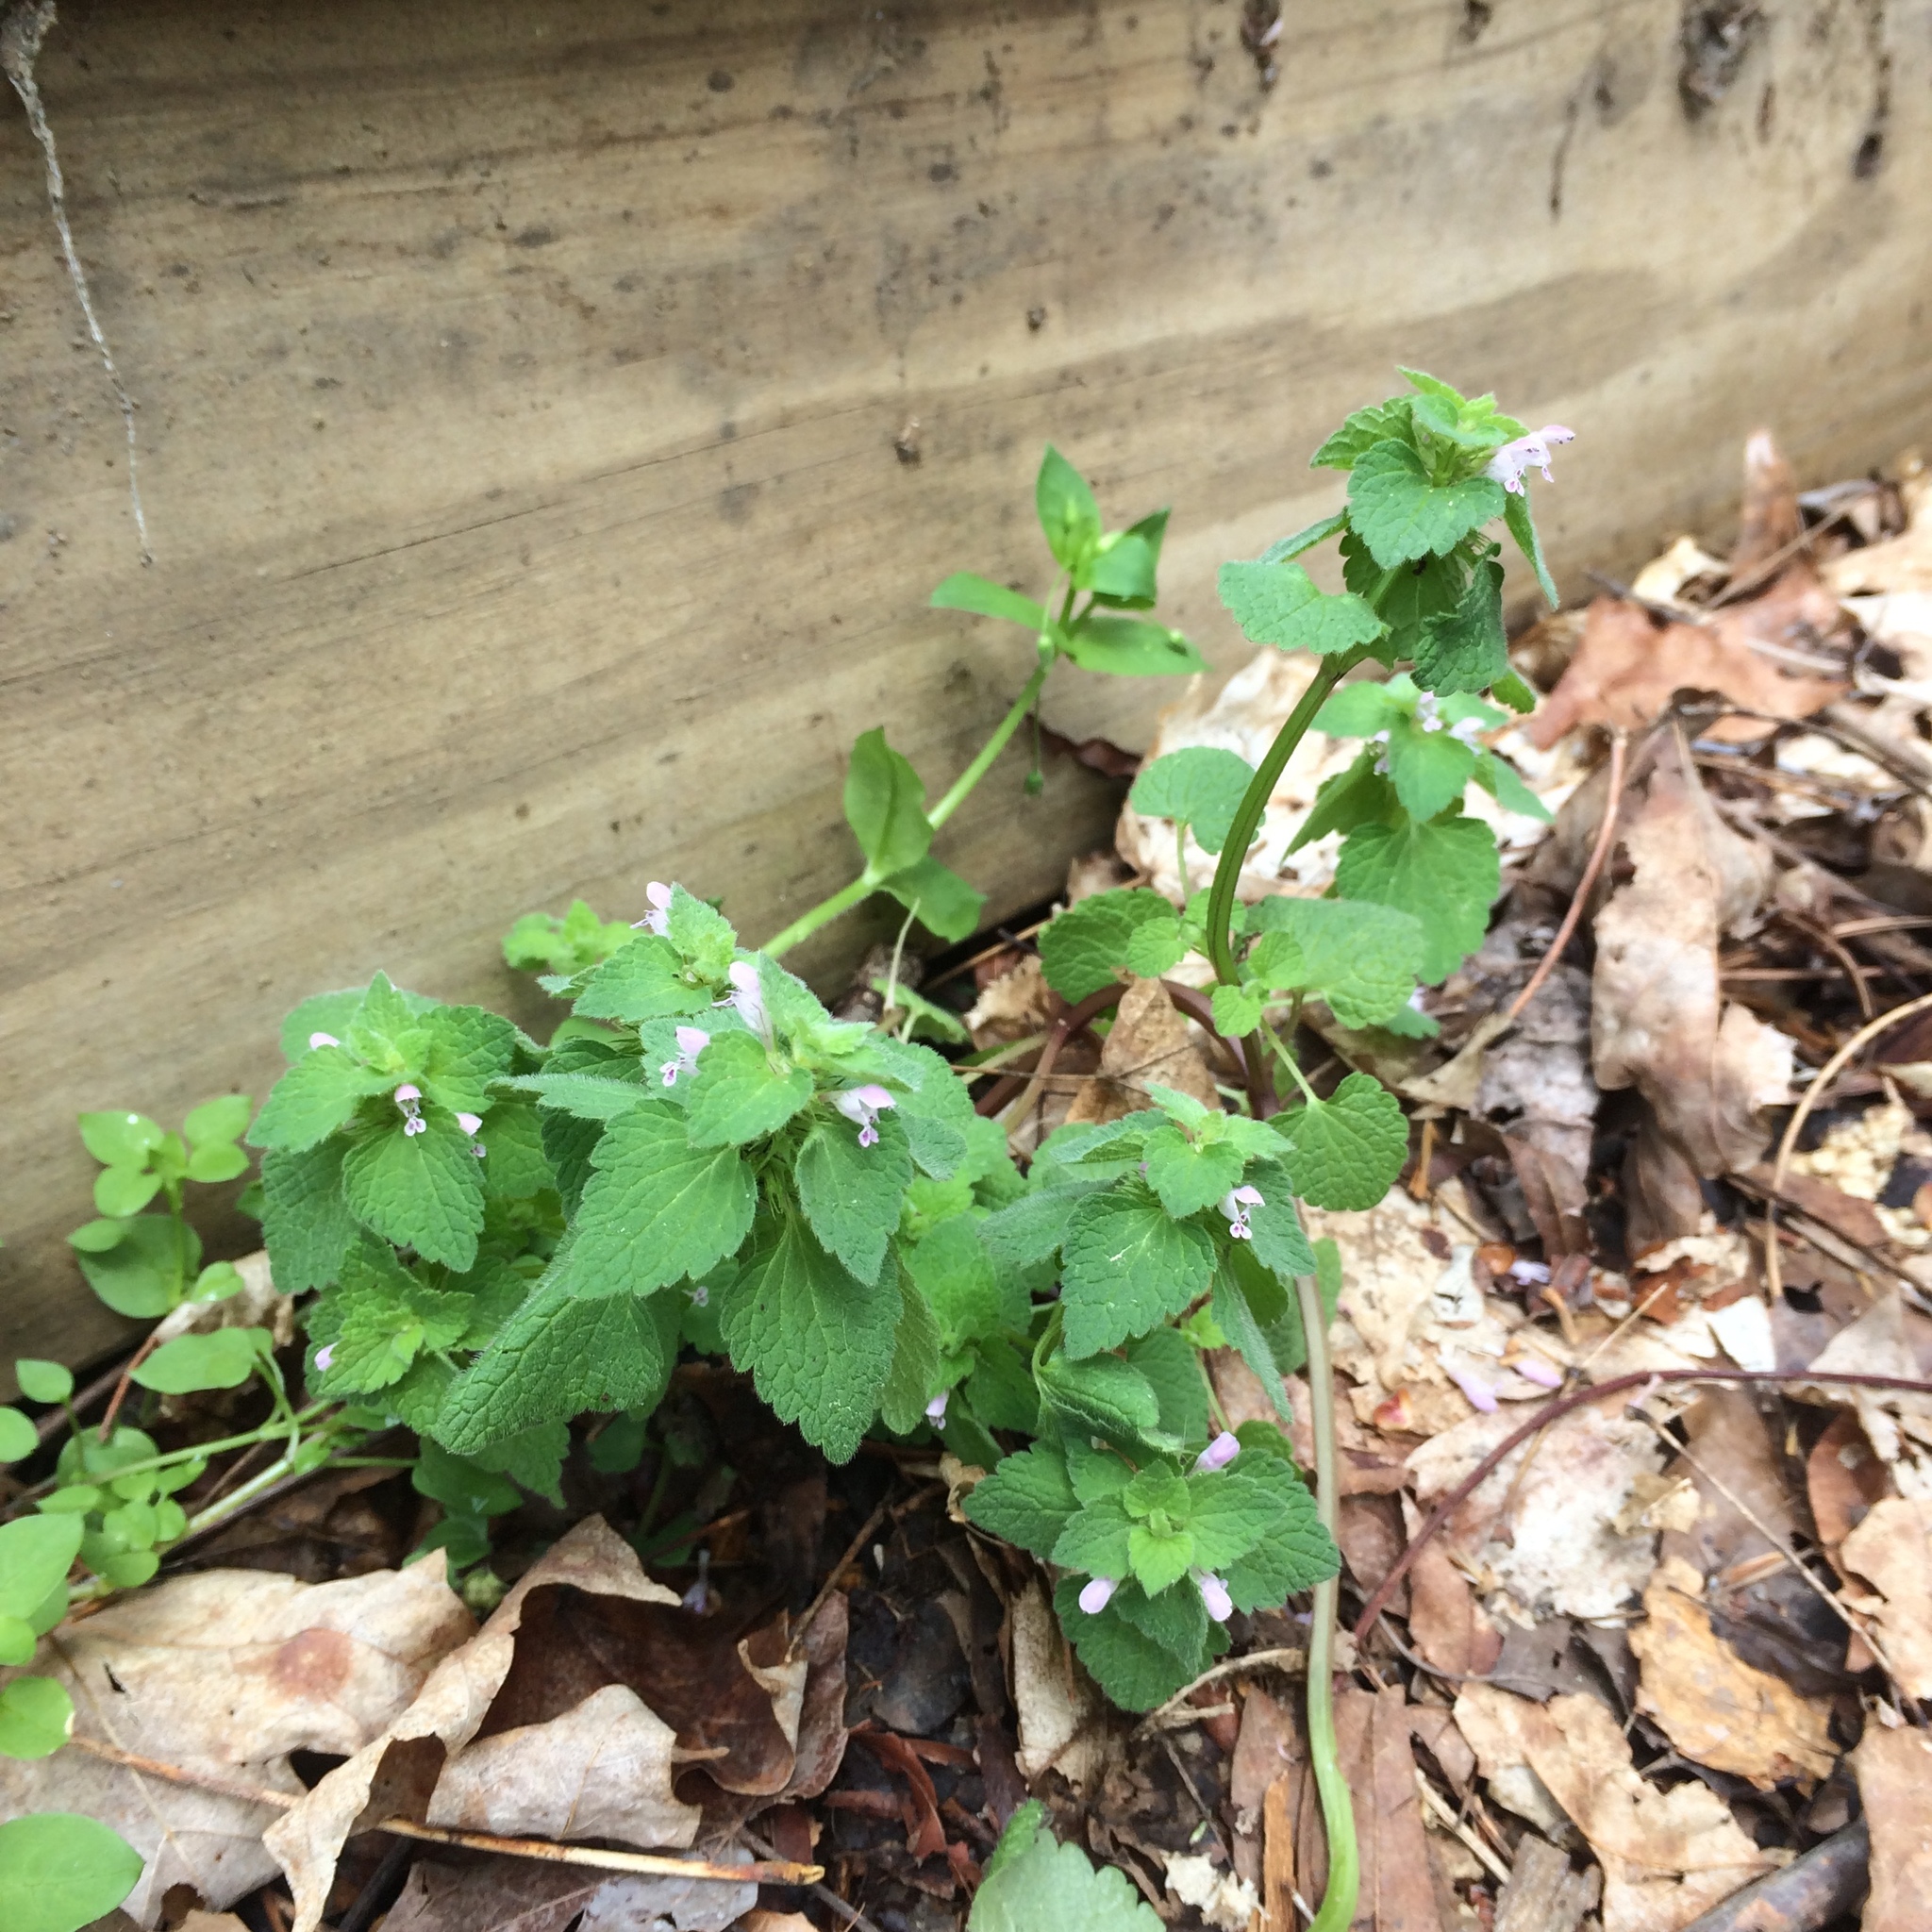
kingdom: Plantae
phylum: Tracheophyta
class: Magnoliopsida
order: Lamiales
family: Lamiaceae
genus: Lamium
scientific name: Lamium purpureum
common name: Red dead-nettle
